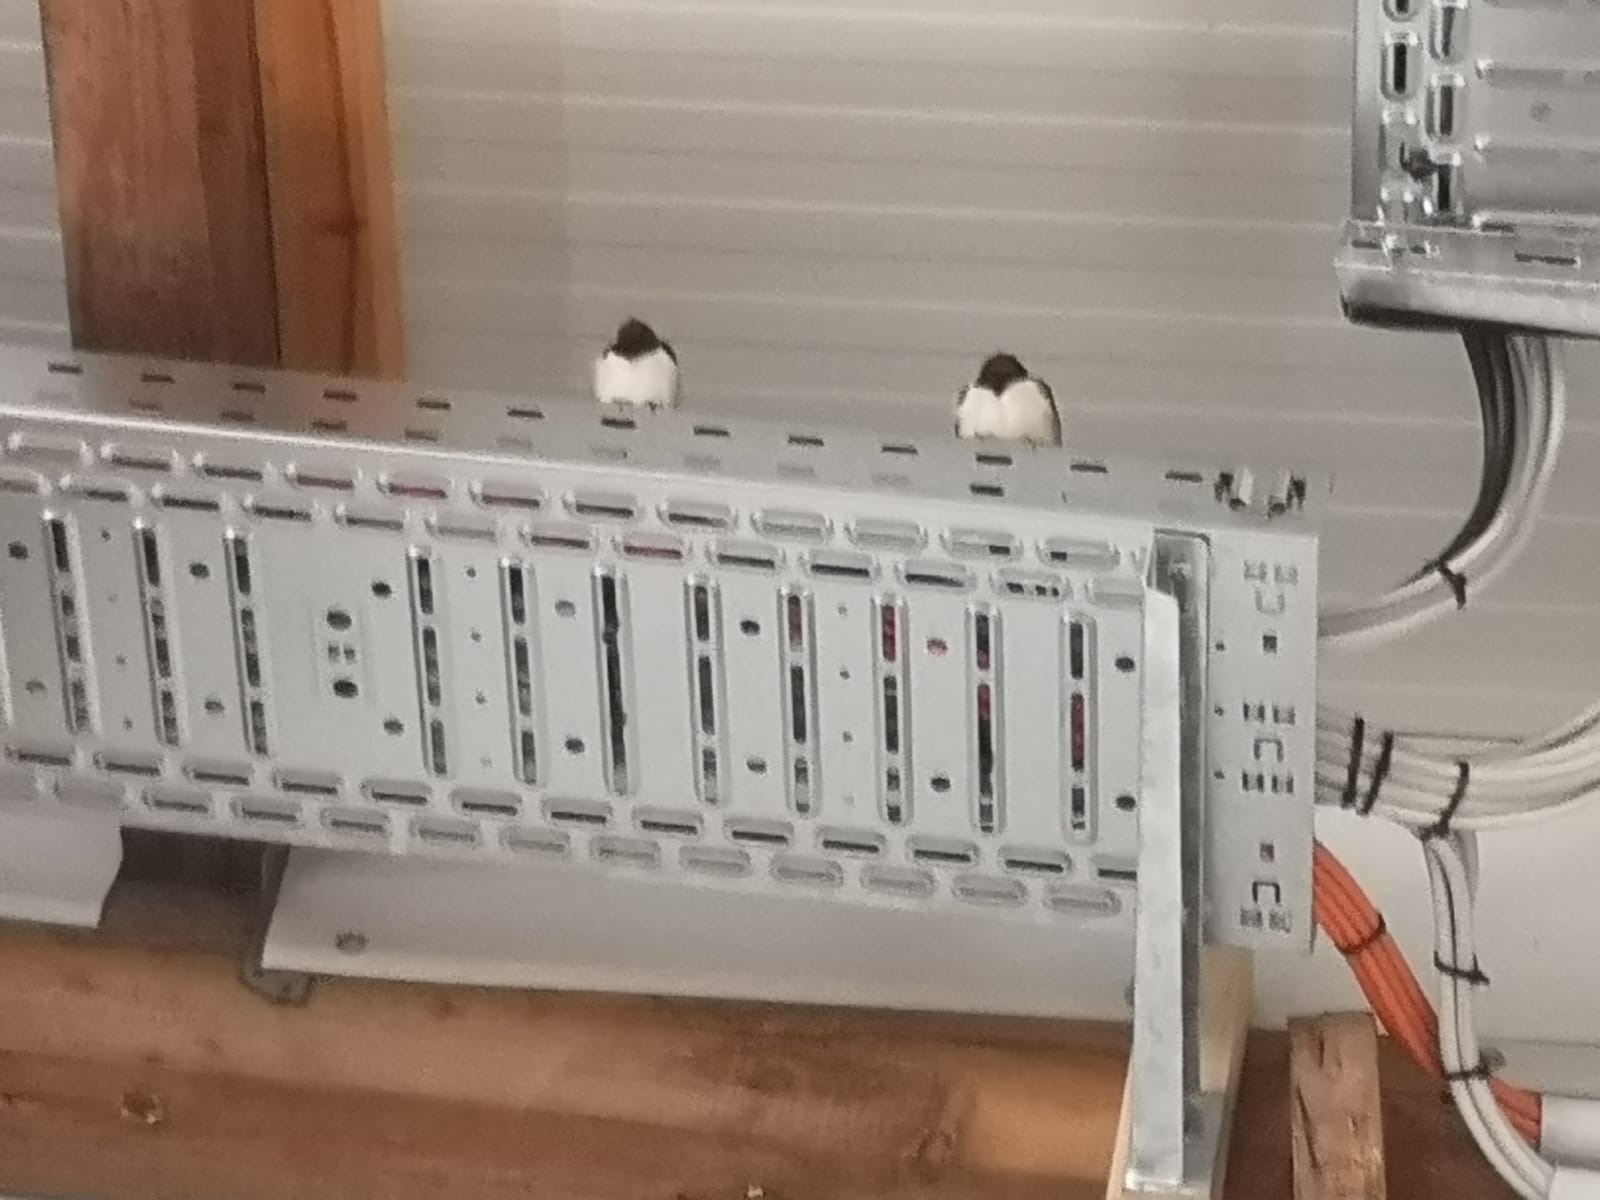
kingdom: Animalia
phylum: Chordata
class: Aves
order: Passeriformes
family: Hirundinidae
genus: Hirundo
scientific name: Hirundo rustica
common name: Barn swallow
